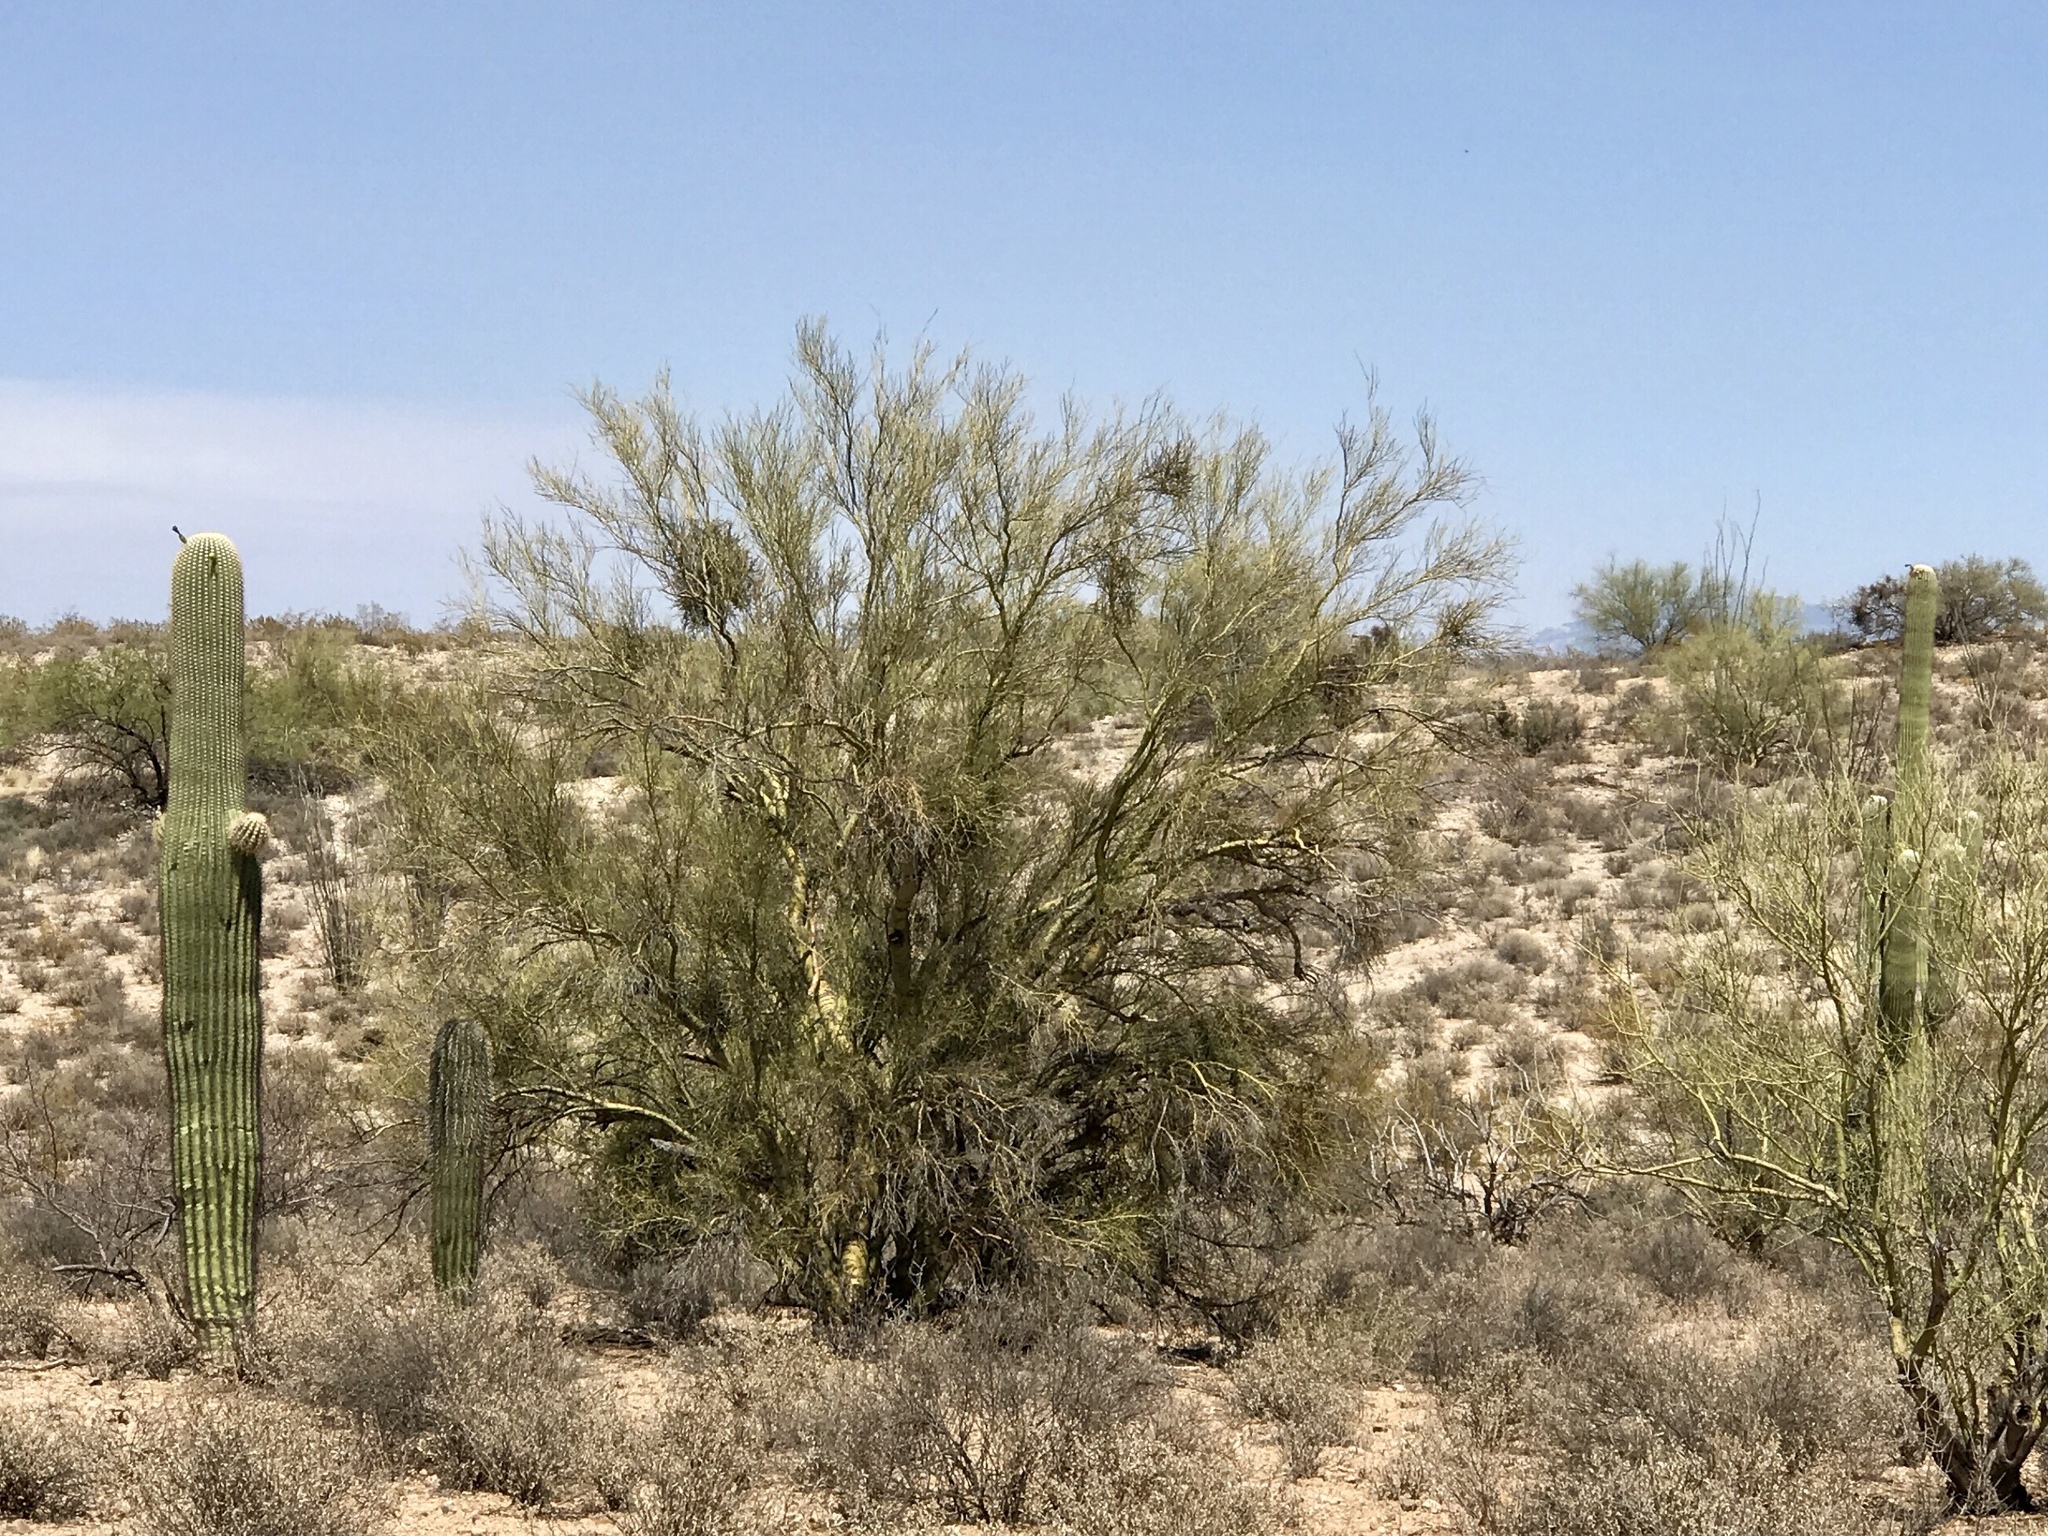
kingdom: Plantae
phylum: Tracheophyta
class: Magnoliopsida
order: Fabales
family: Fabaceae
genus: Parkinsonia
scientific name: Parkinsonia florida
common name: Blue paloverde
